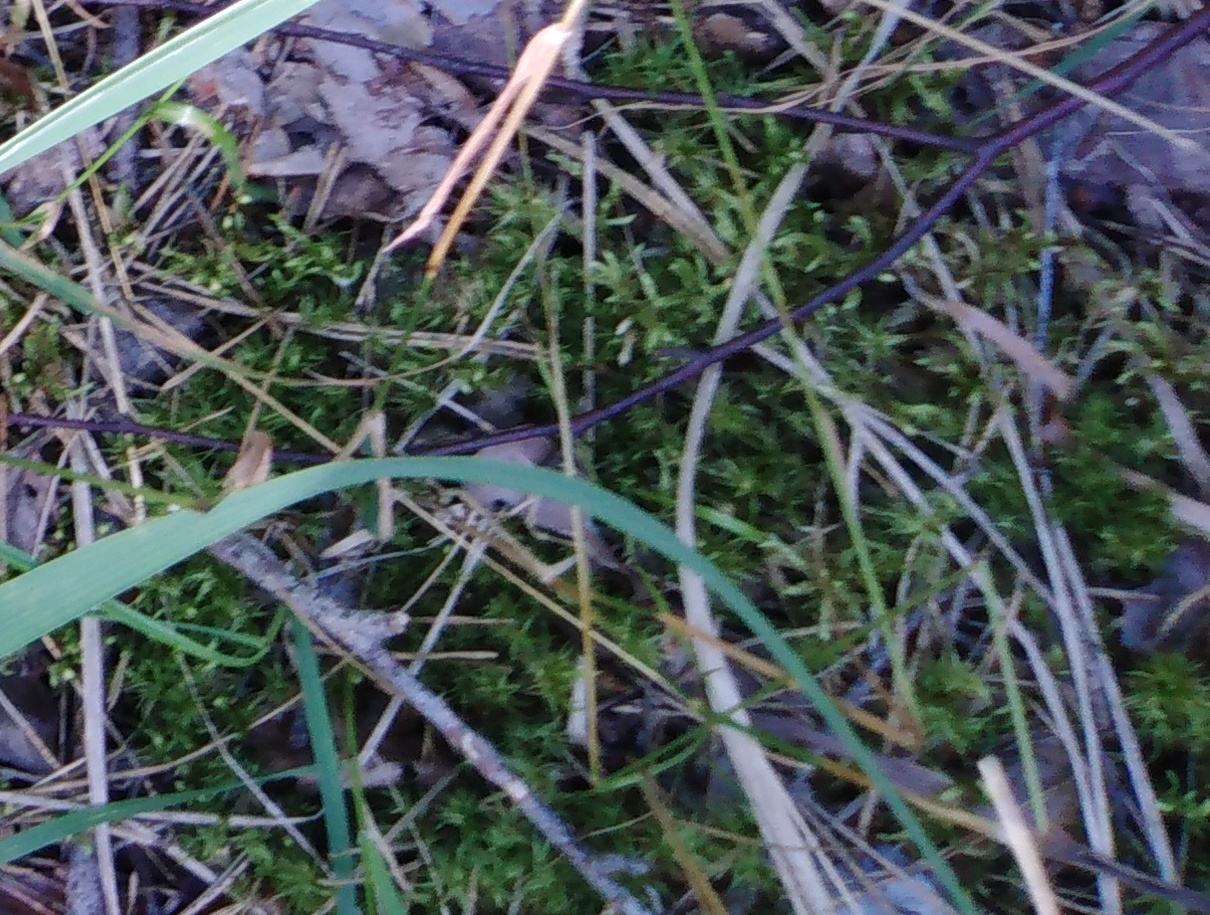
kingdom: Plantae
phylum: Bryophyta
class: Bryopsida
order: Hypnales
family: Hylocomiaceae
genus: Pleurozium
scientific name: Pleurozium schreberi
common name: Red-stemmed feather moss
